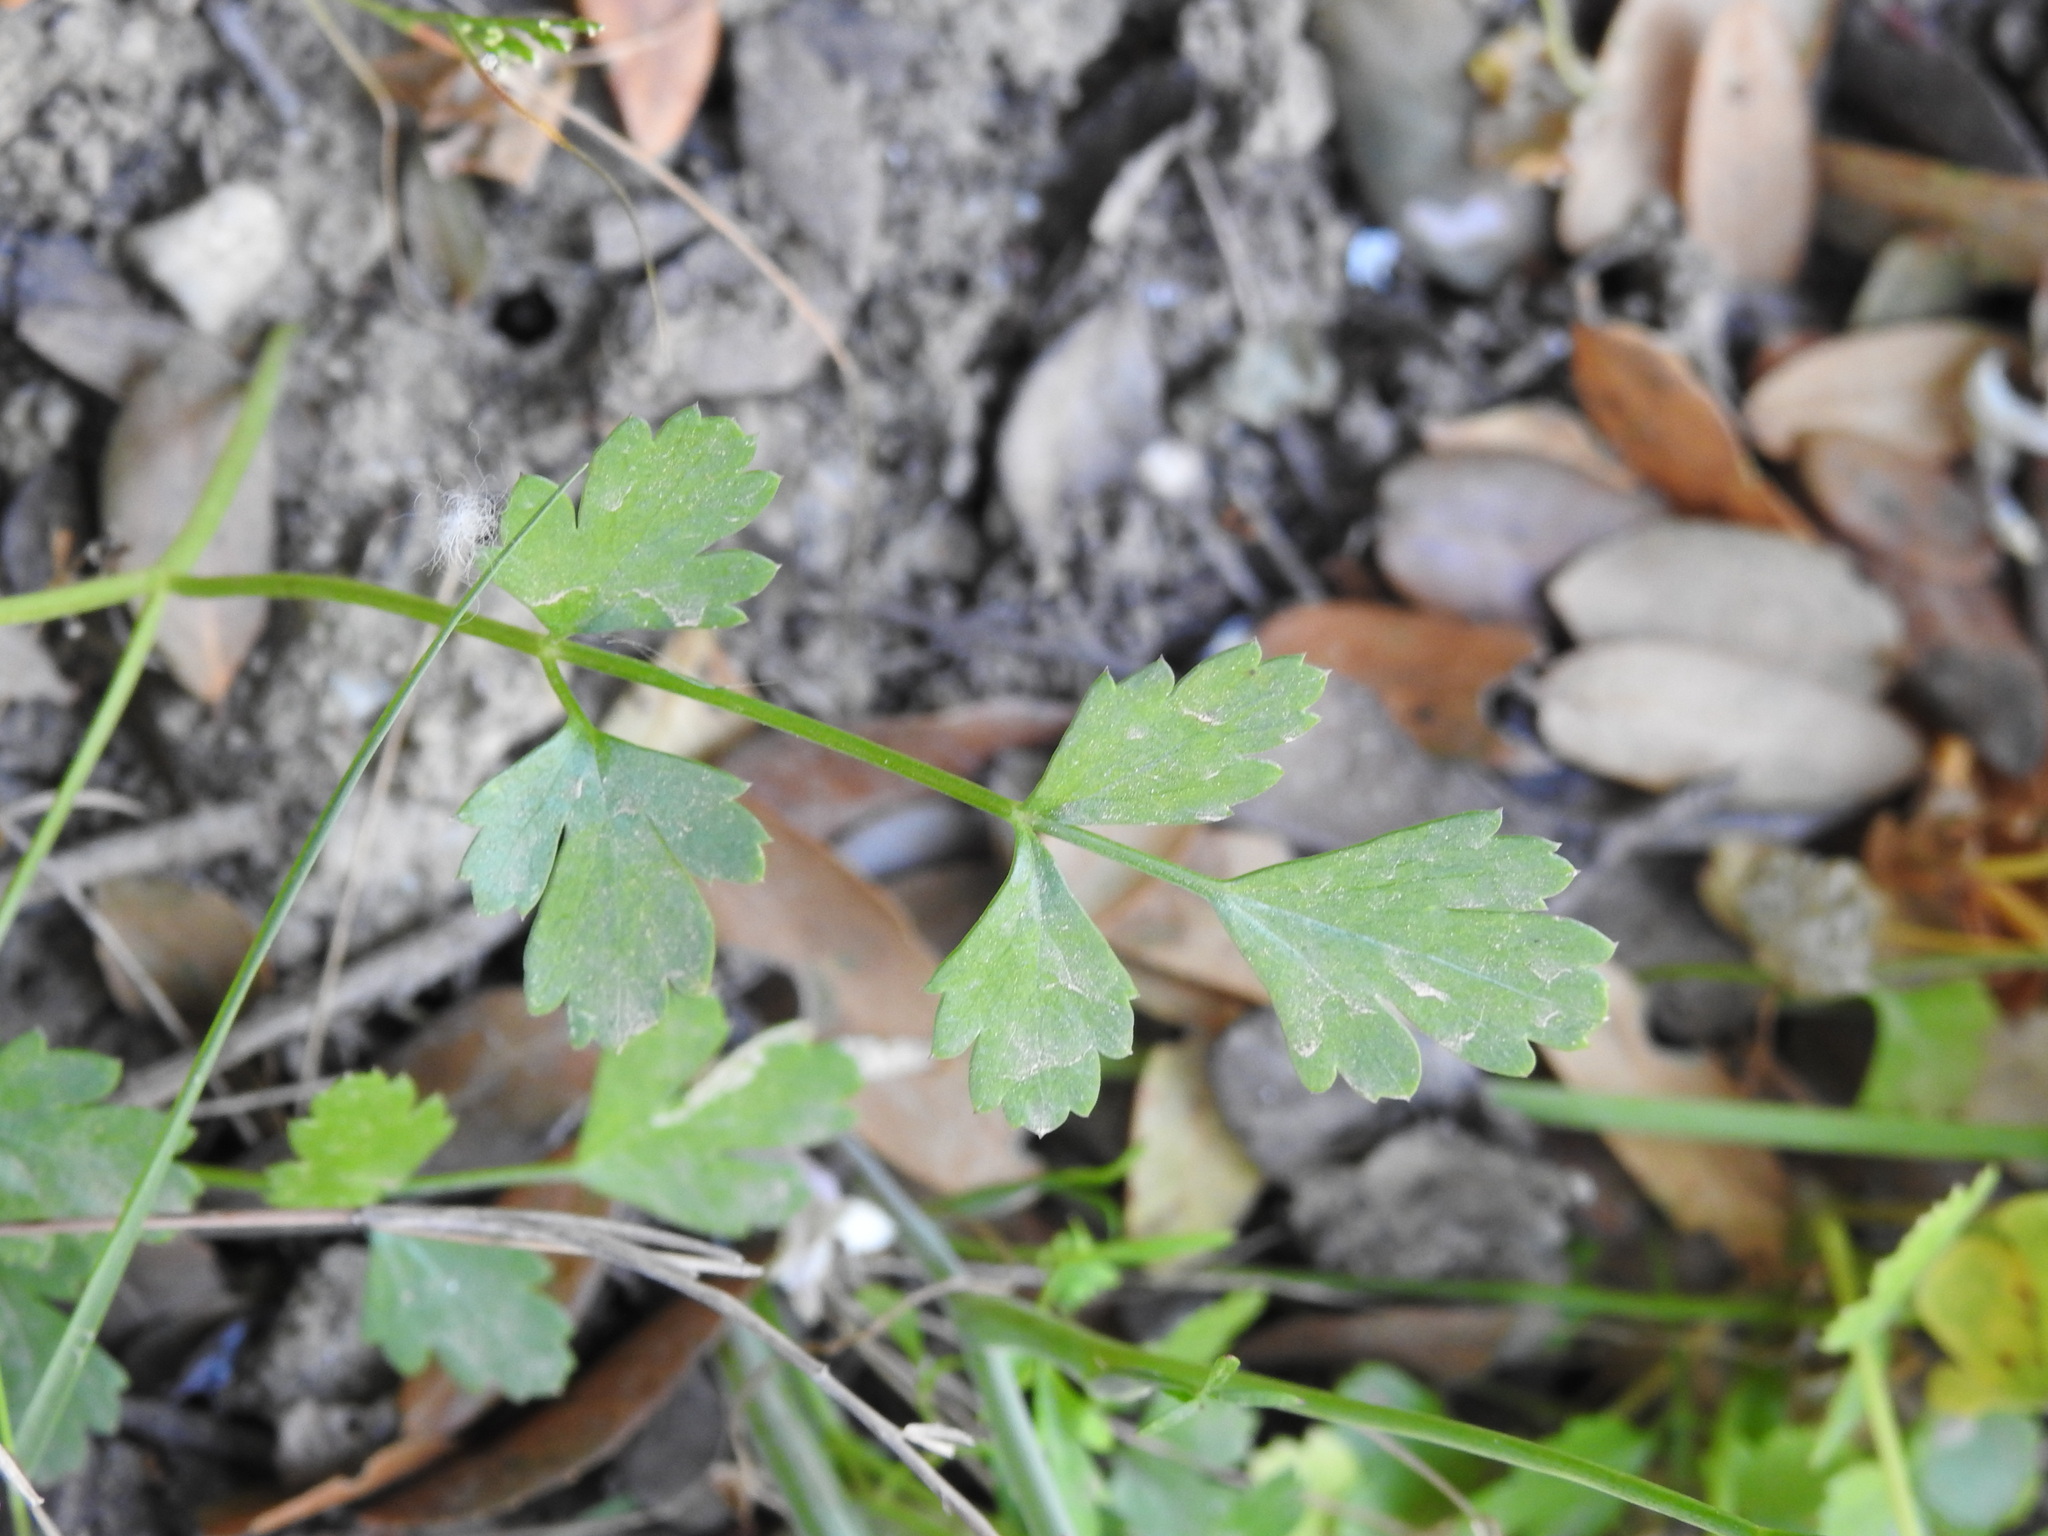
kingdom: Plantae
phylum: Tracheophyta
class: Magnoliopsida
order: Apiales
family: Apiaceae
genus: Pimpinella
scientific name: Pimpinella peregrina
